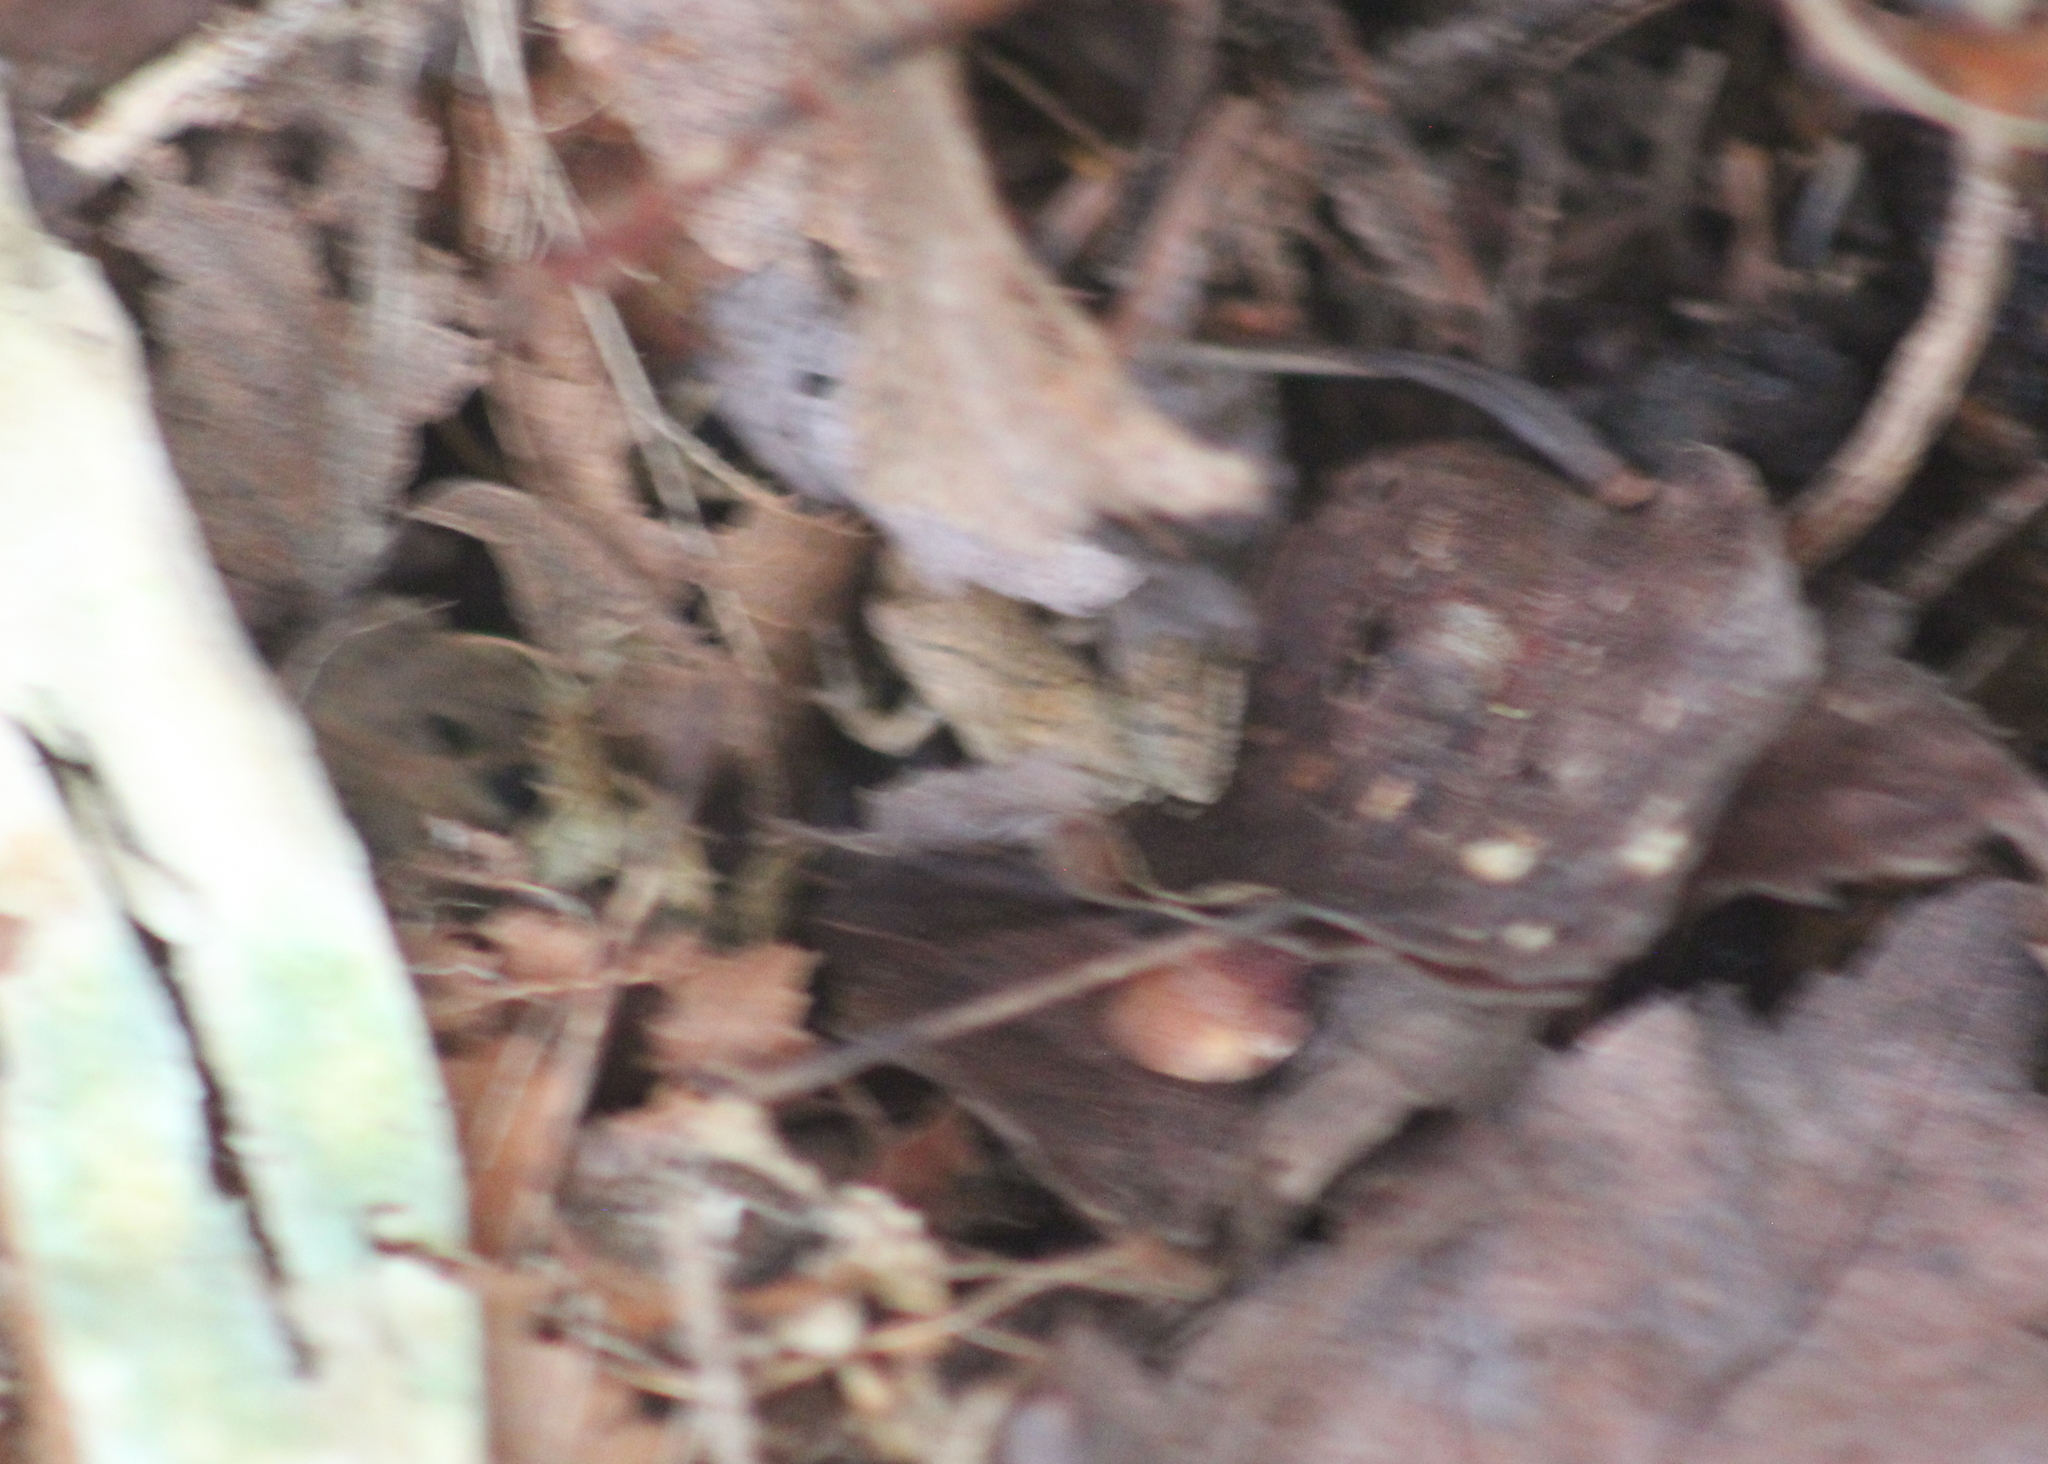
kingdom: Animalia
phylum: Chordata
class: Amphibia
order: Anura
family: Hylidae
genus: Pseudacris
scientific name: Pseudacris crucifer
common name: Spring peeper
